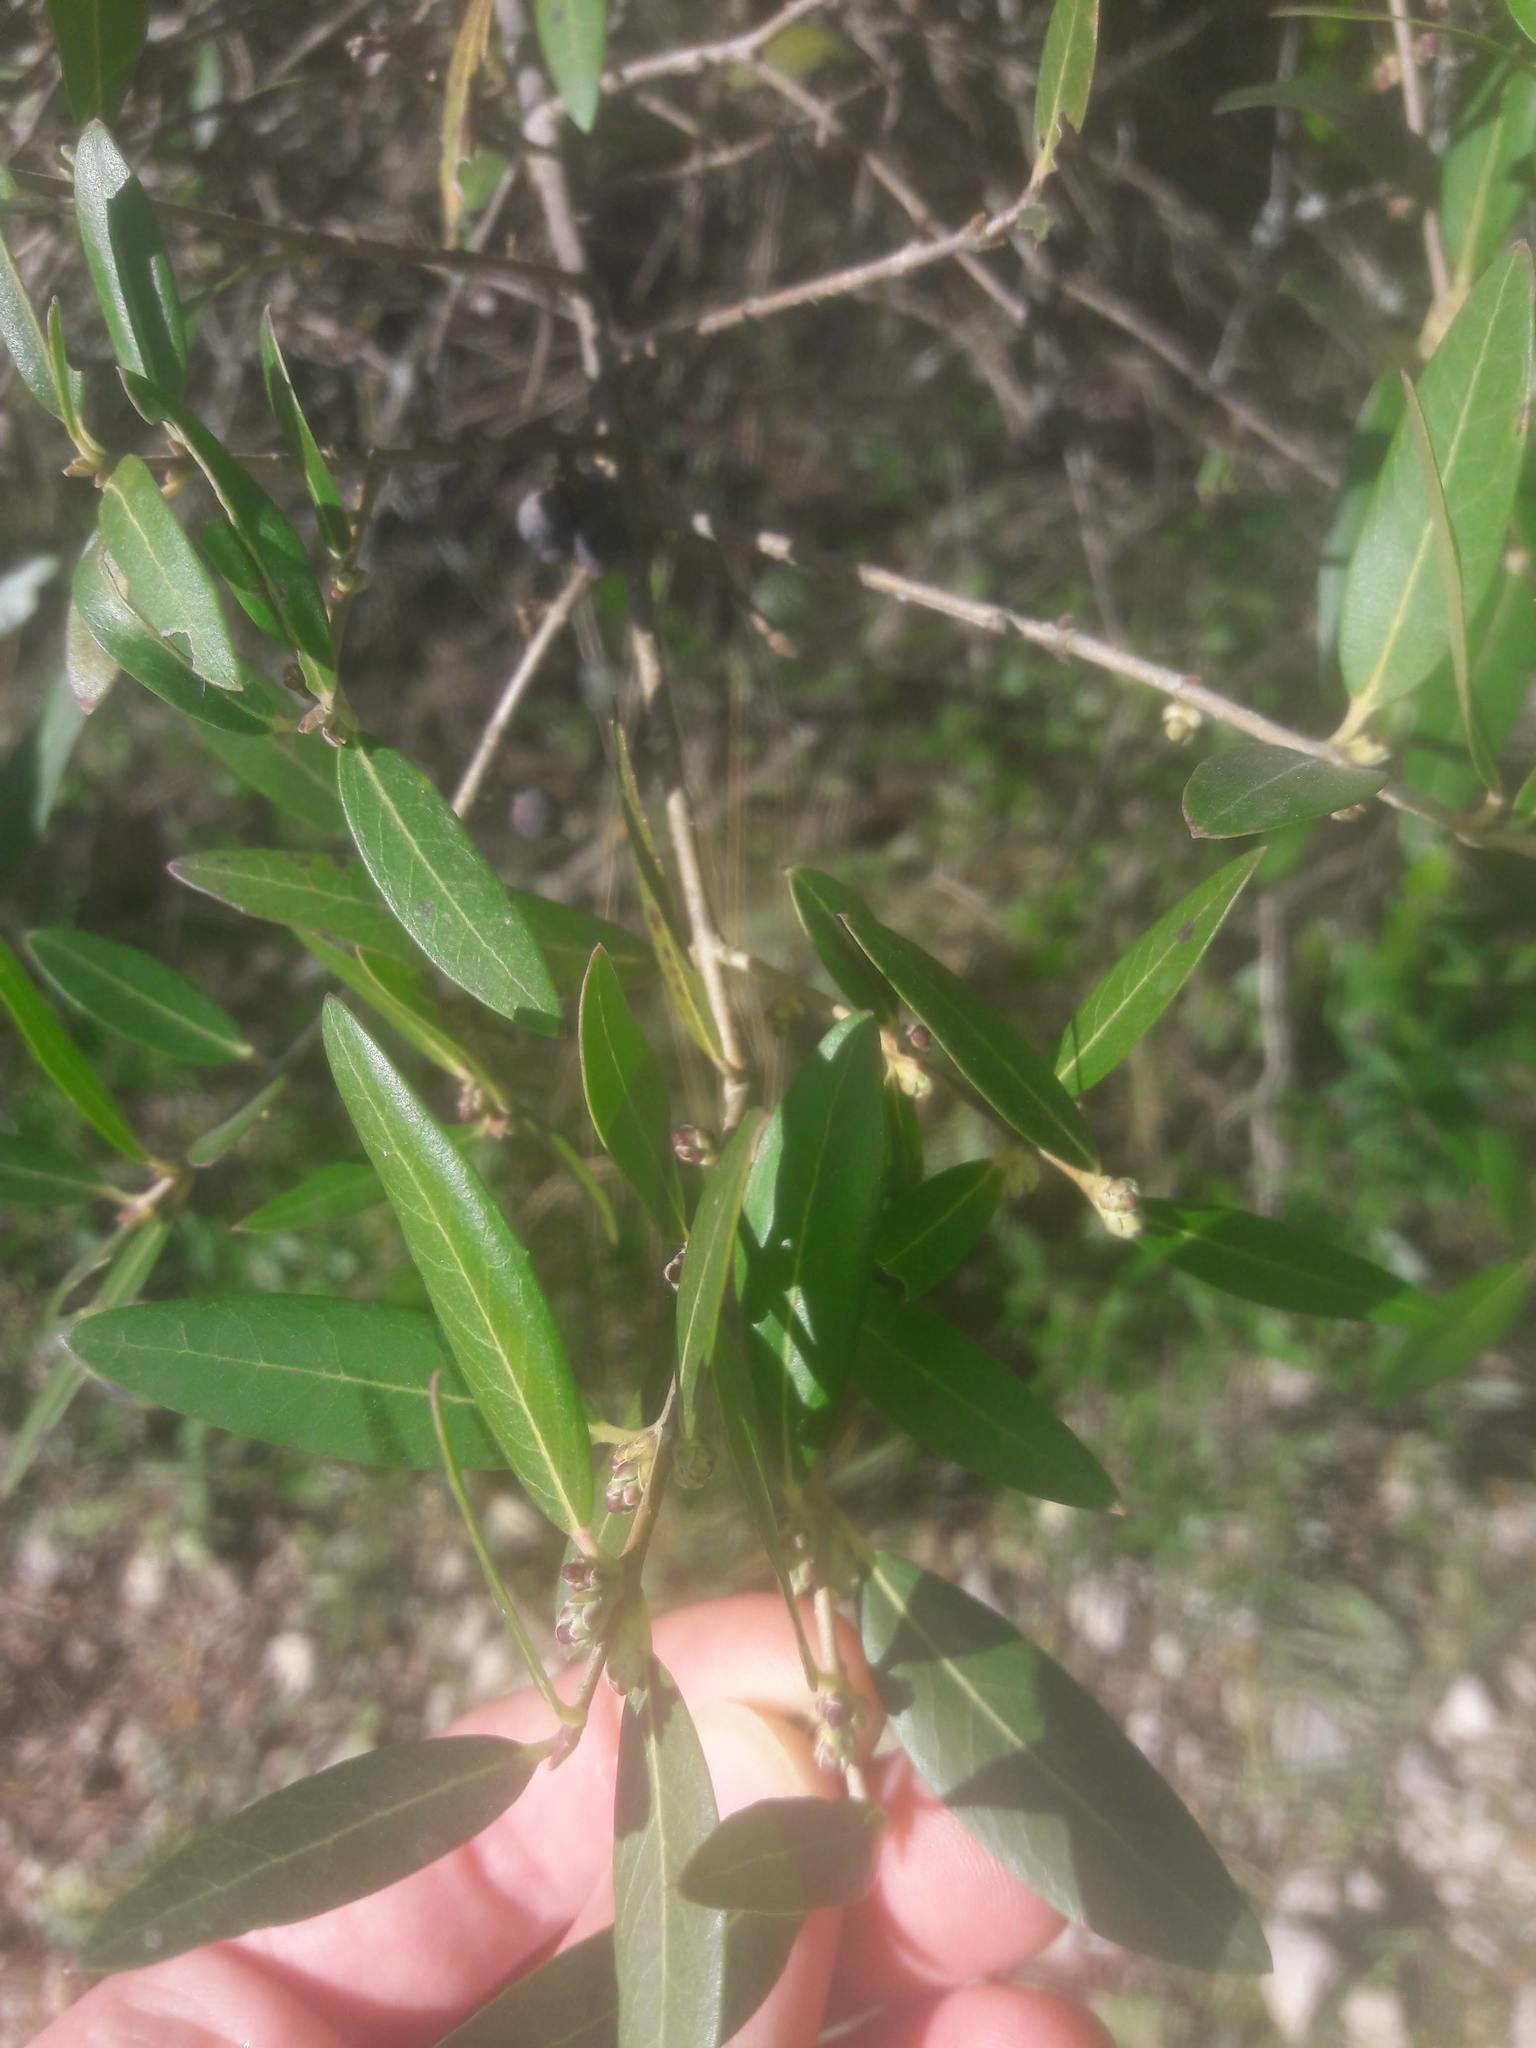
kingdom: Plantae
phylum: Tracheophyta
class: Magnoliopsida
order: Lamiales
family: Oleaceae
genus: Phillyrea
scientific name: Phillyrea angustifolia
